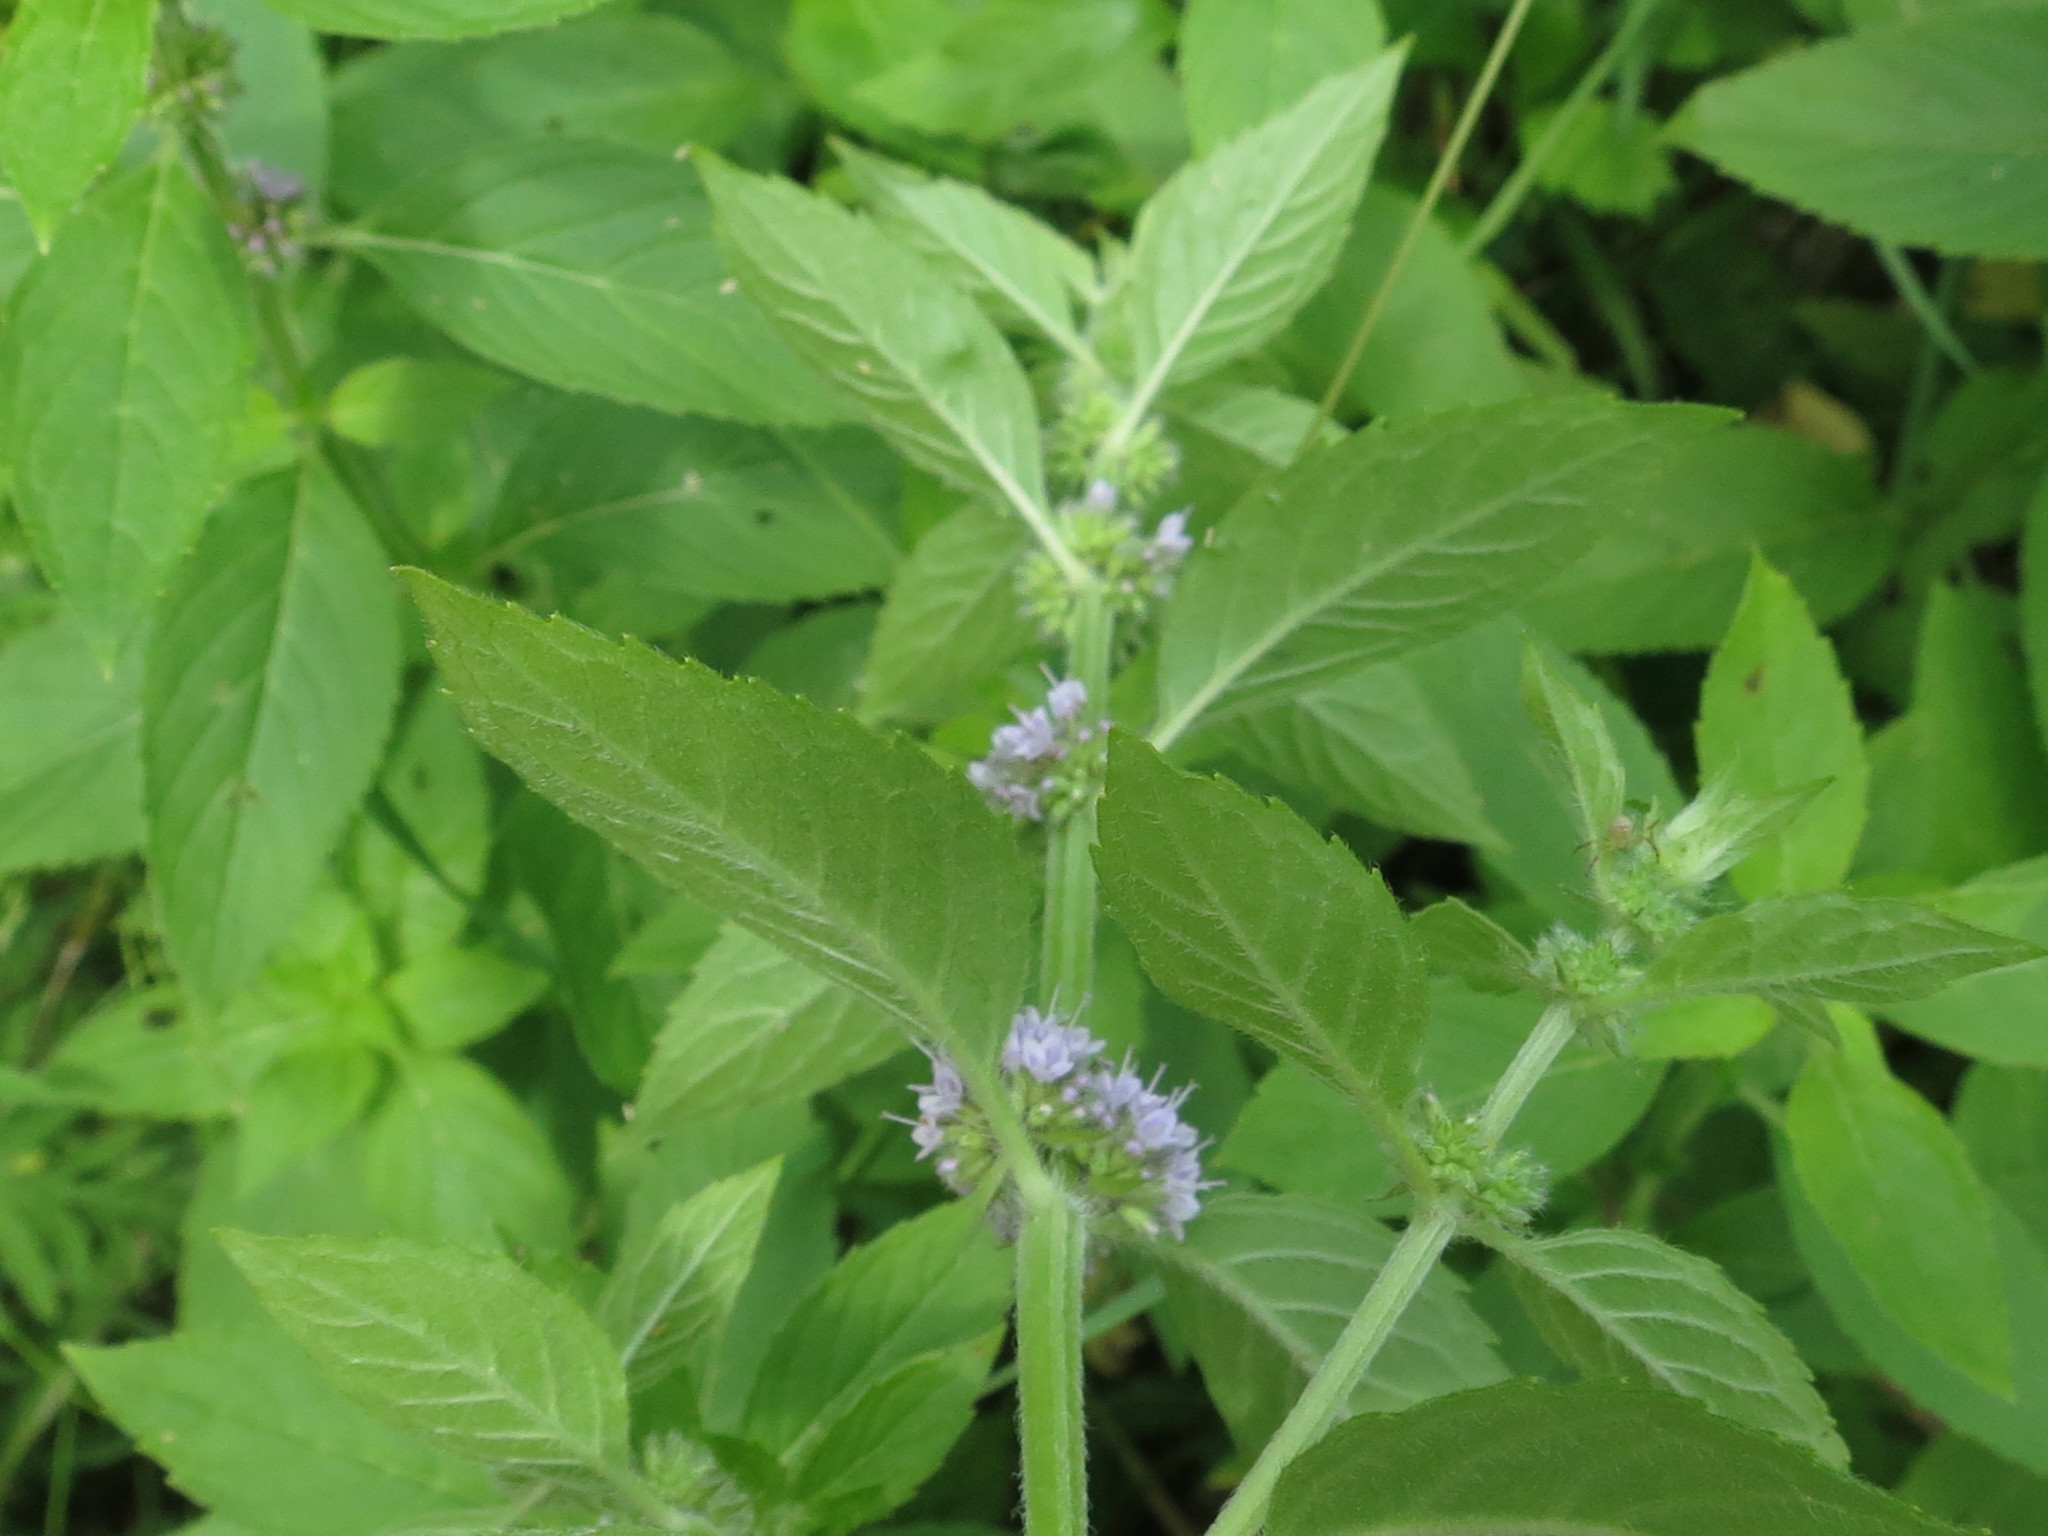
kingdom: Plantae
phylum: Tracheophyta
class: Magnoliopsida
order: Lamiales
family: Lamiaceae
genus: Mentha
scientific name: Mentha canadensis
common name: American corn mint
